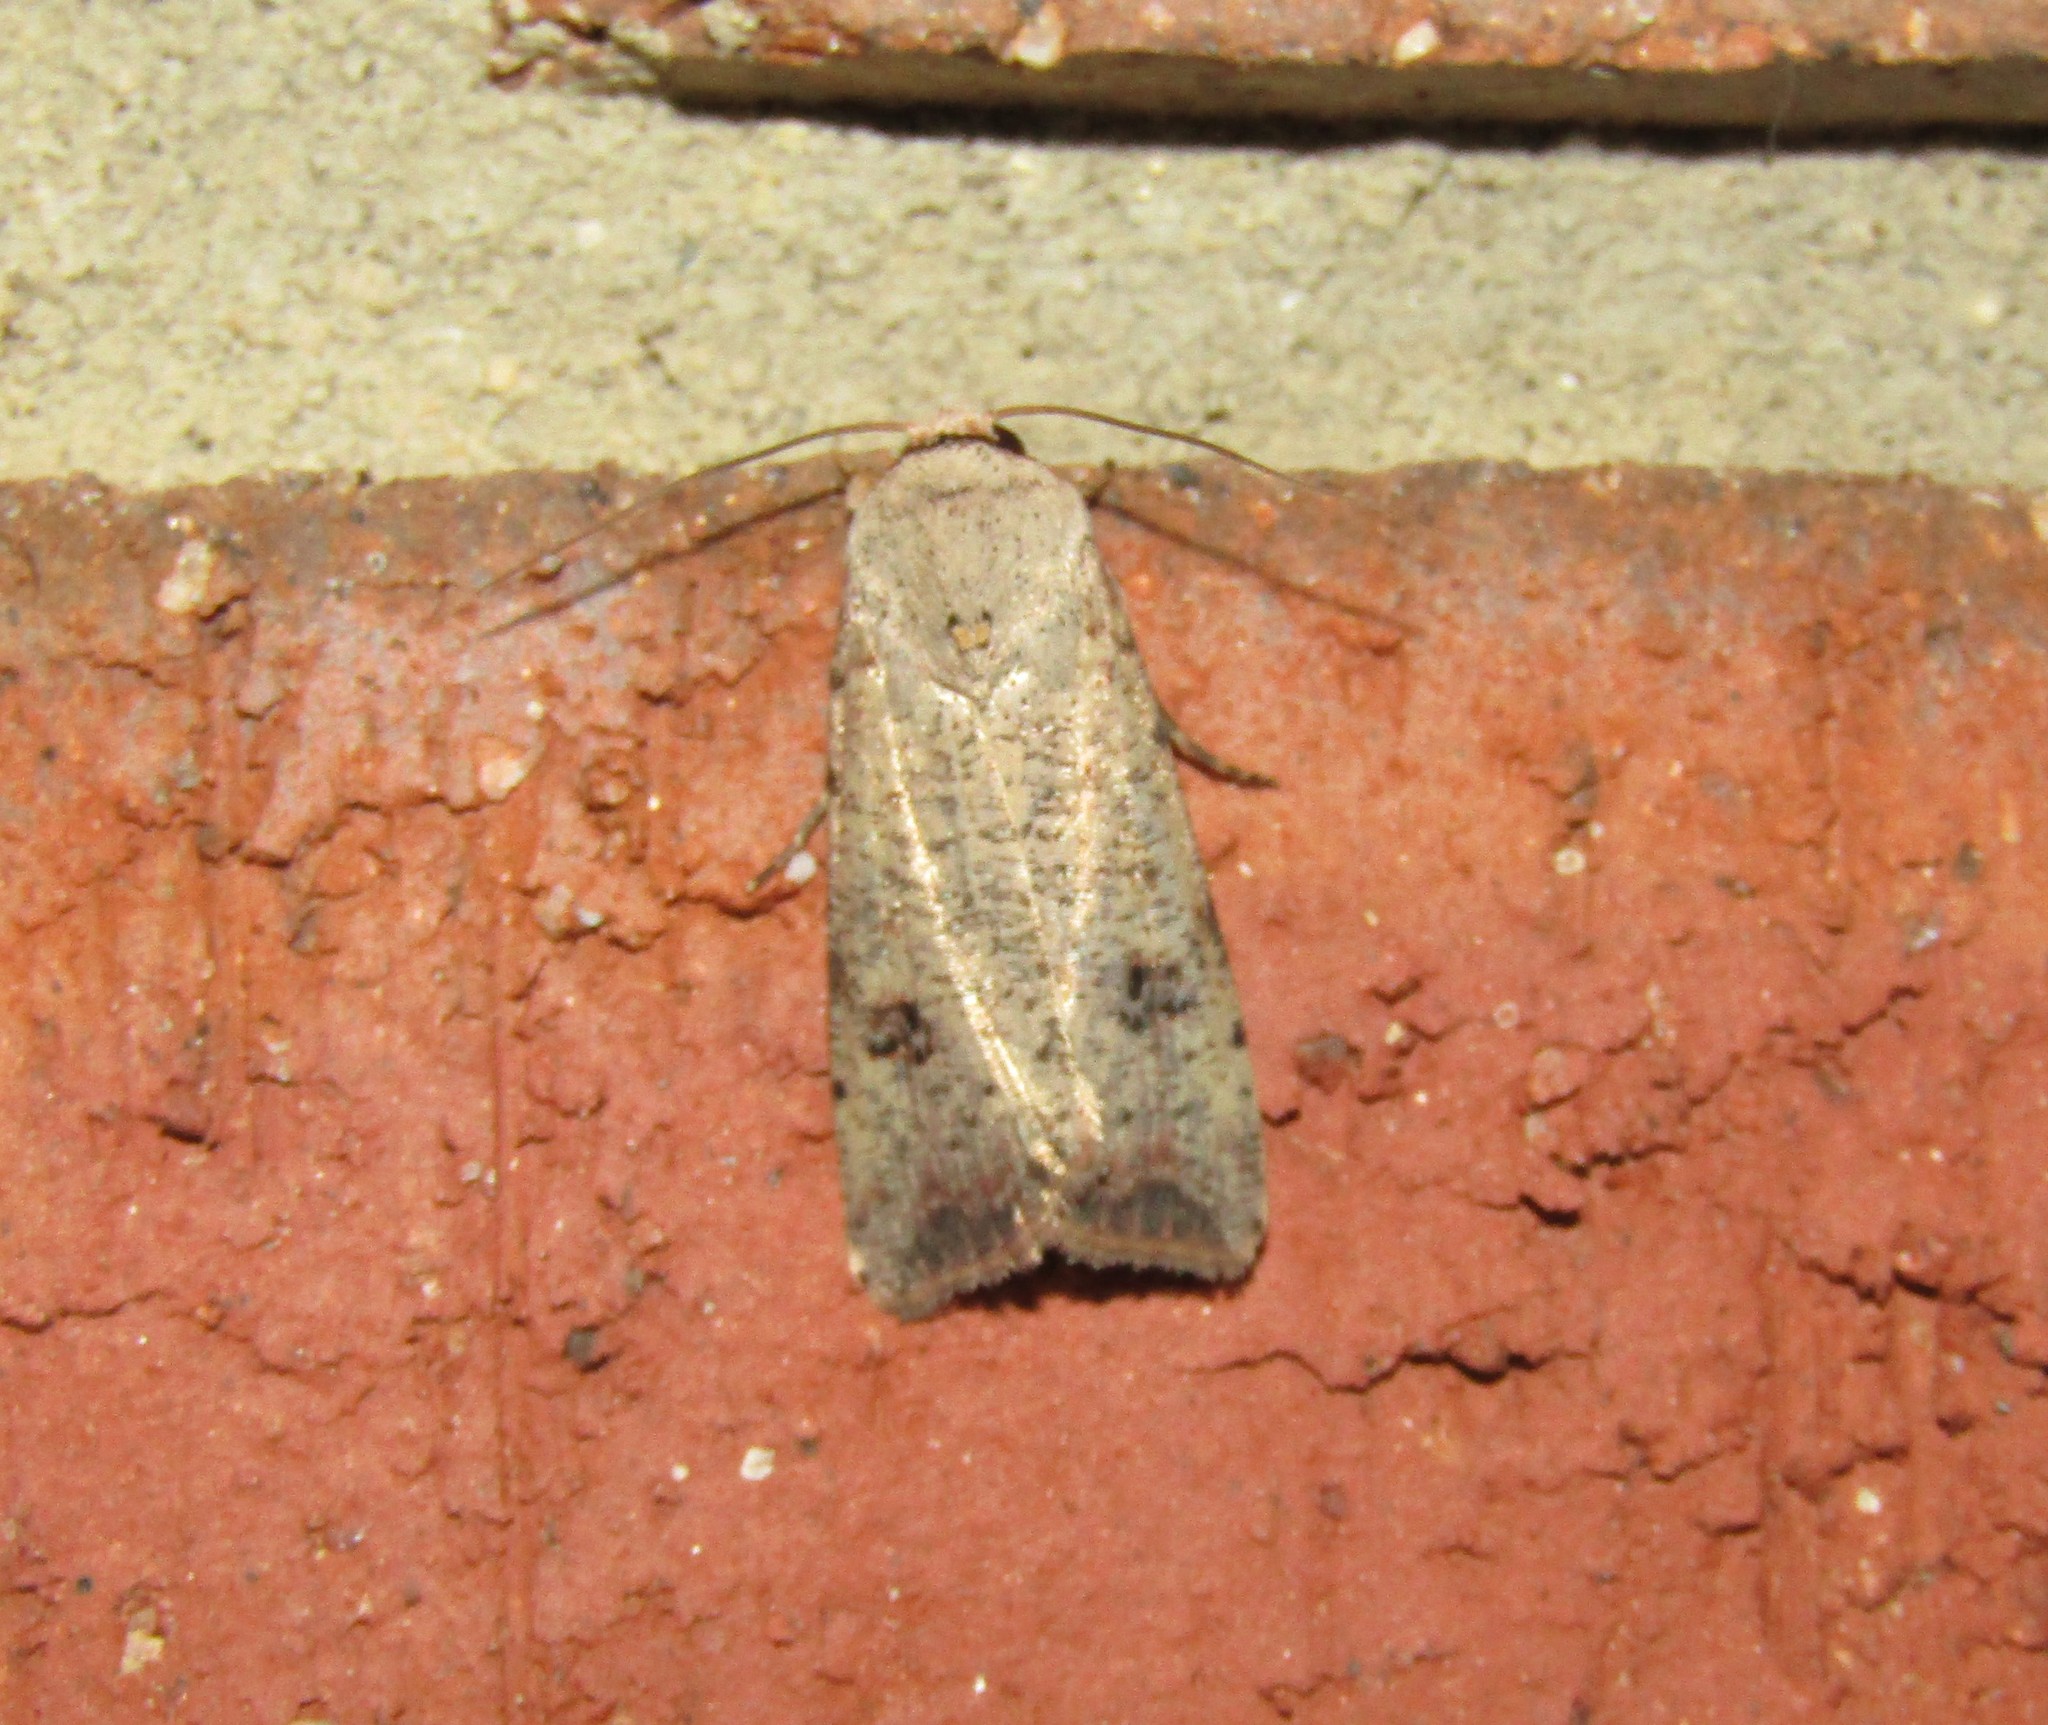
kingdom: Animalia
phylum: Arthropoda
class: Insecta
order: Lepidoptera
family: Noctuidae
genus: Anicla
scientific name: Anicla infecta
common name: Green cutworm
